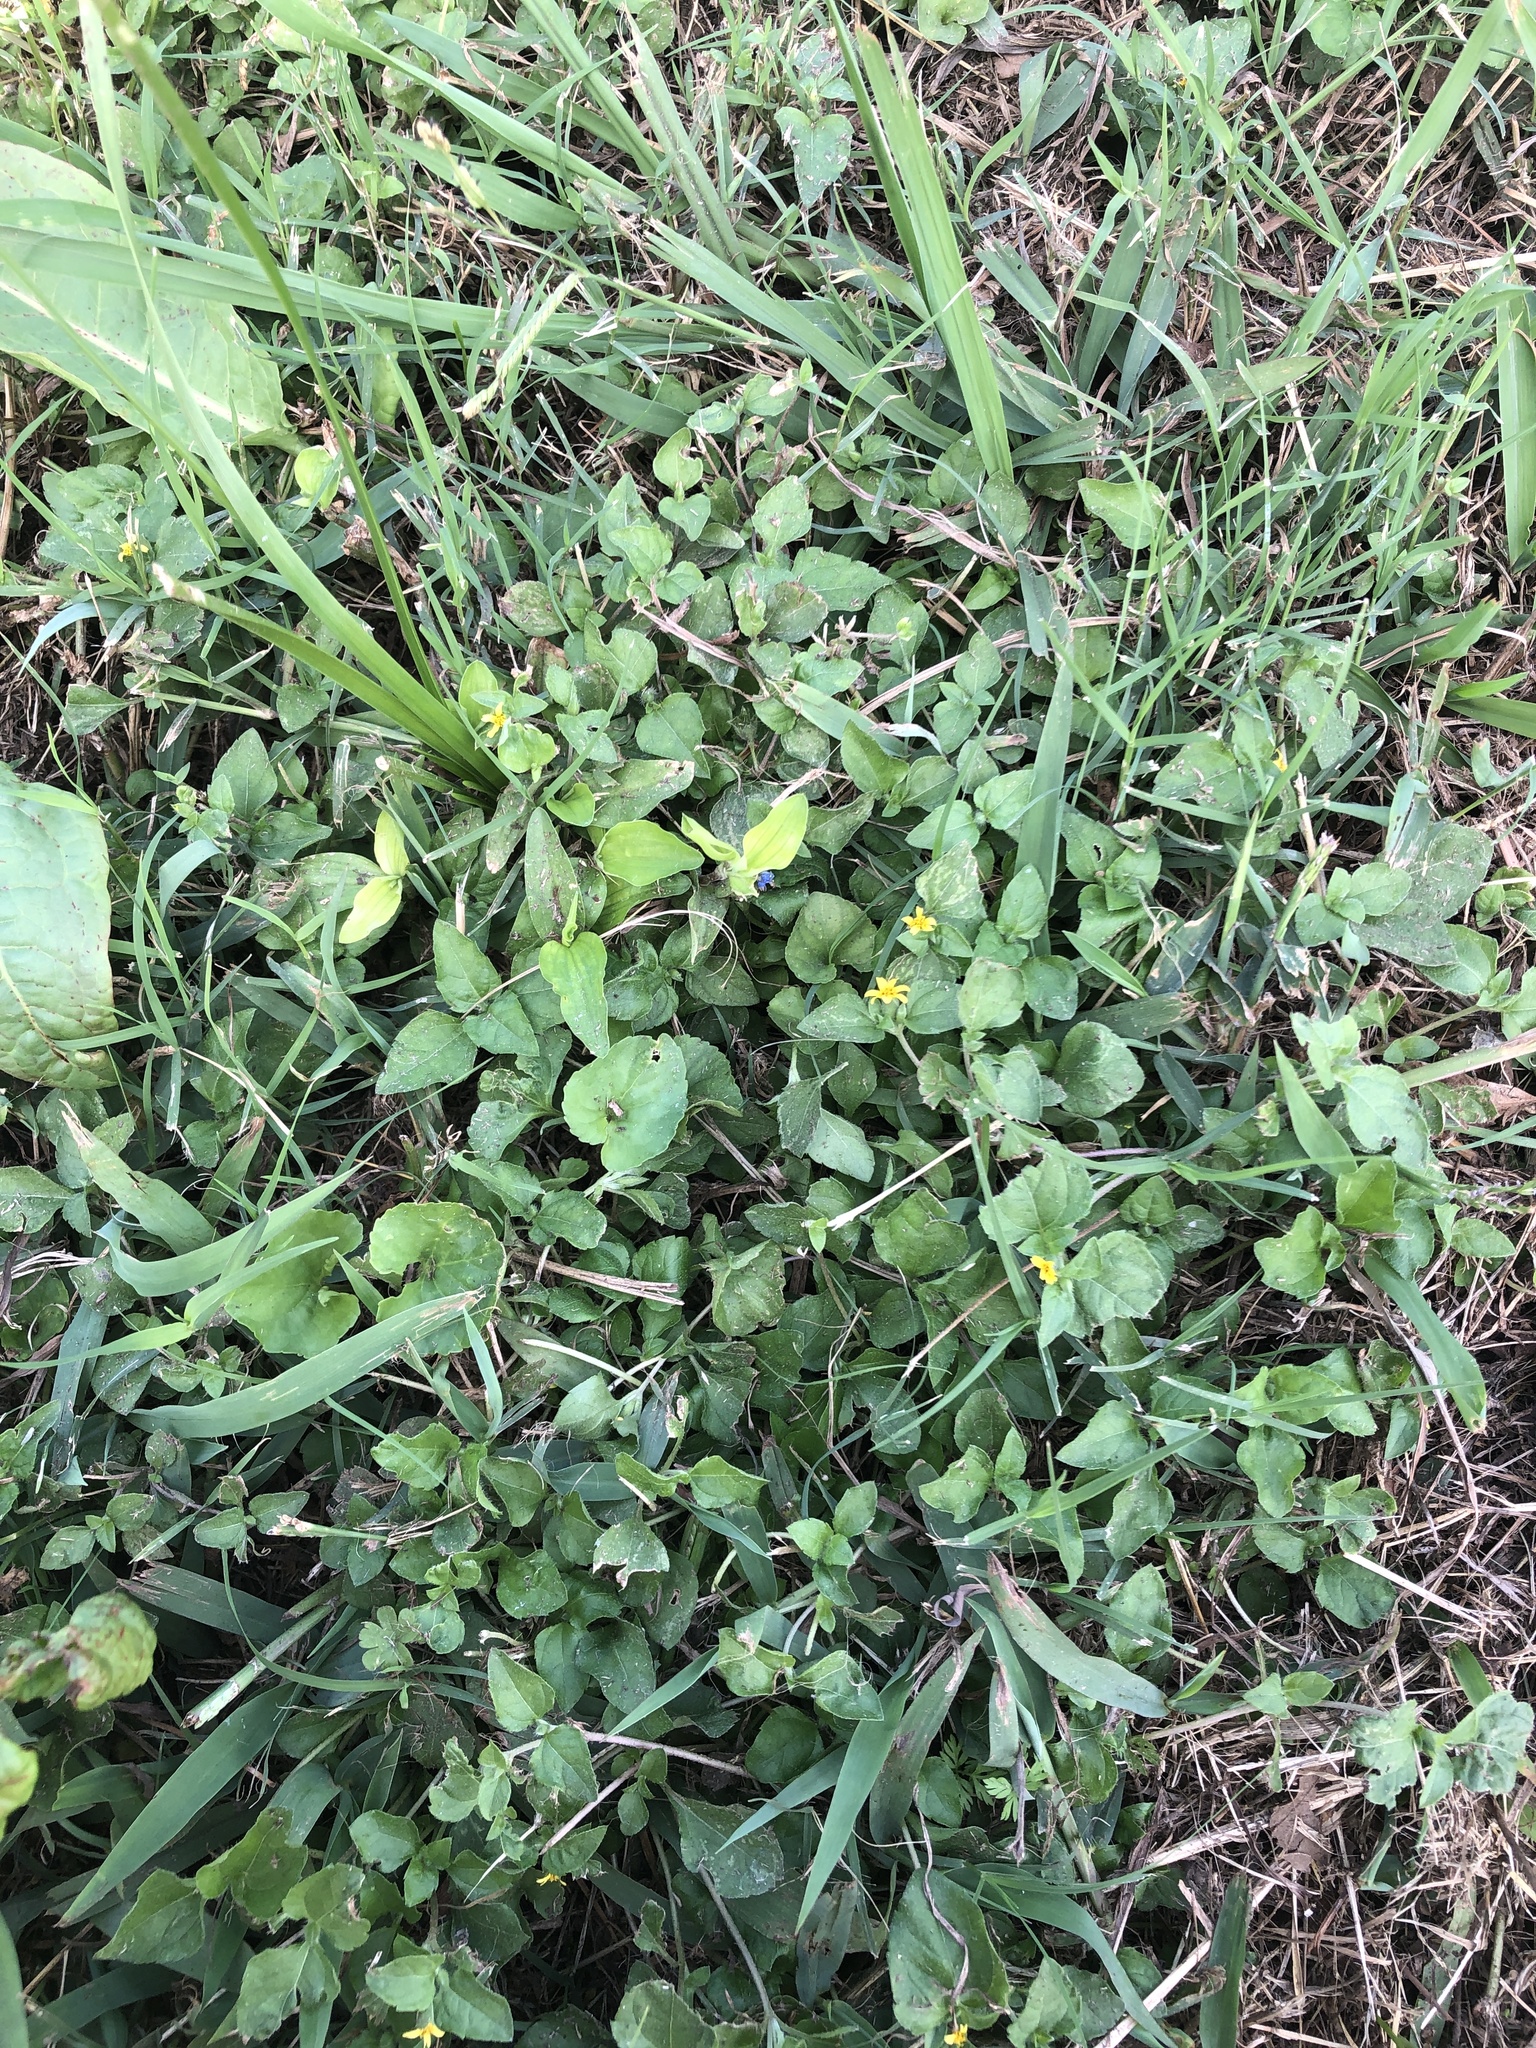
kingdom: Plantae
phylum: Tracheophyta
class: Magnoliopsida
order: Asterales
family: Asteraceae
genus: Calyptocarpus
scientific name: Calyptocarpus vialis
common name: Straggler daisy
